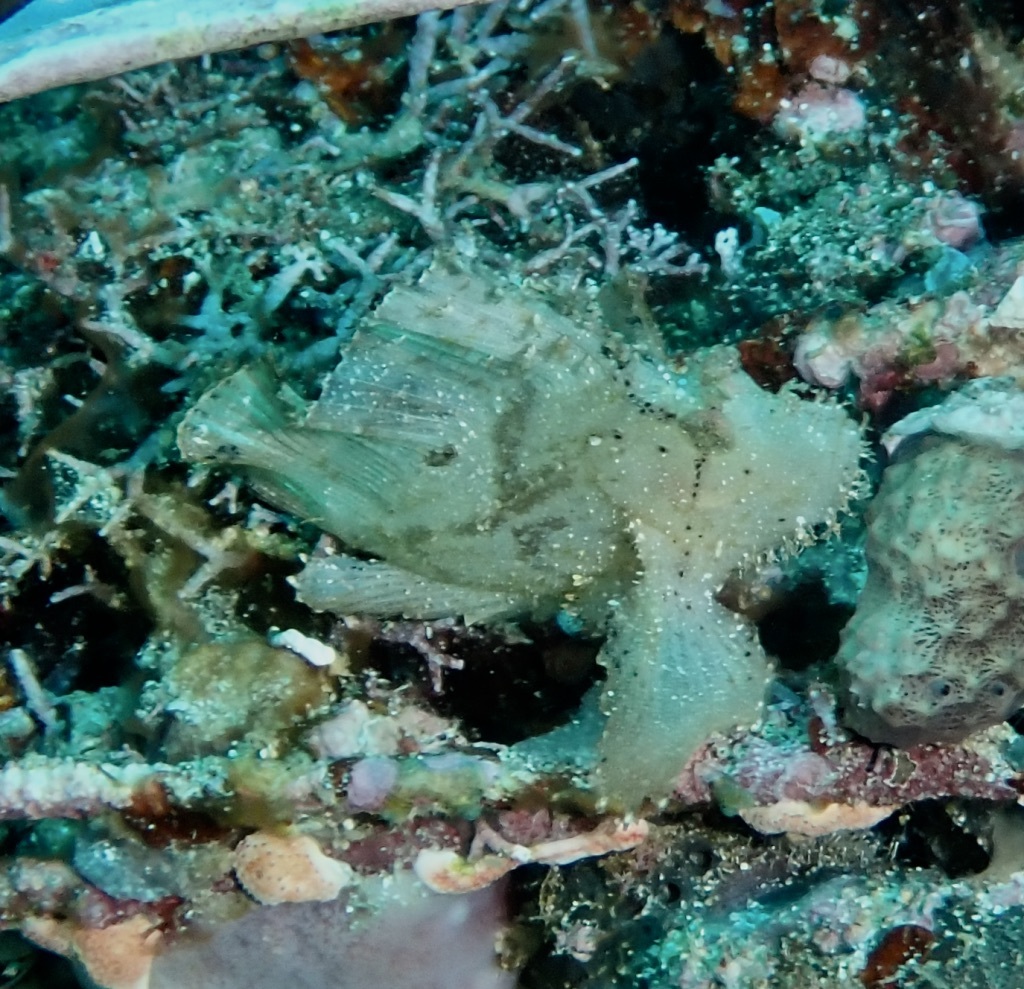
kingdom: Animalia
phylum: Chordata
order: Scorpaeniformes
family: Scorpaenidae
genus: Taenianotus
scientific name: Taenianotus triacanthus
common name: Leaf scorpionfish
